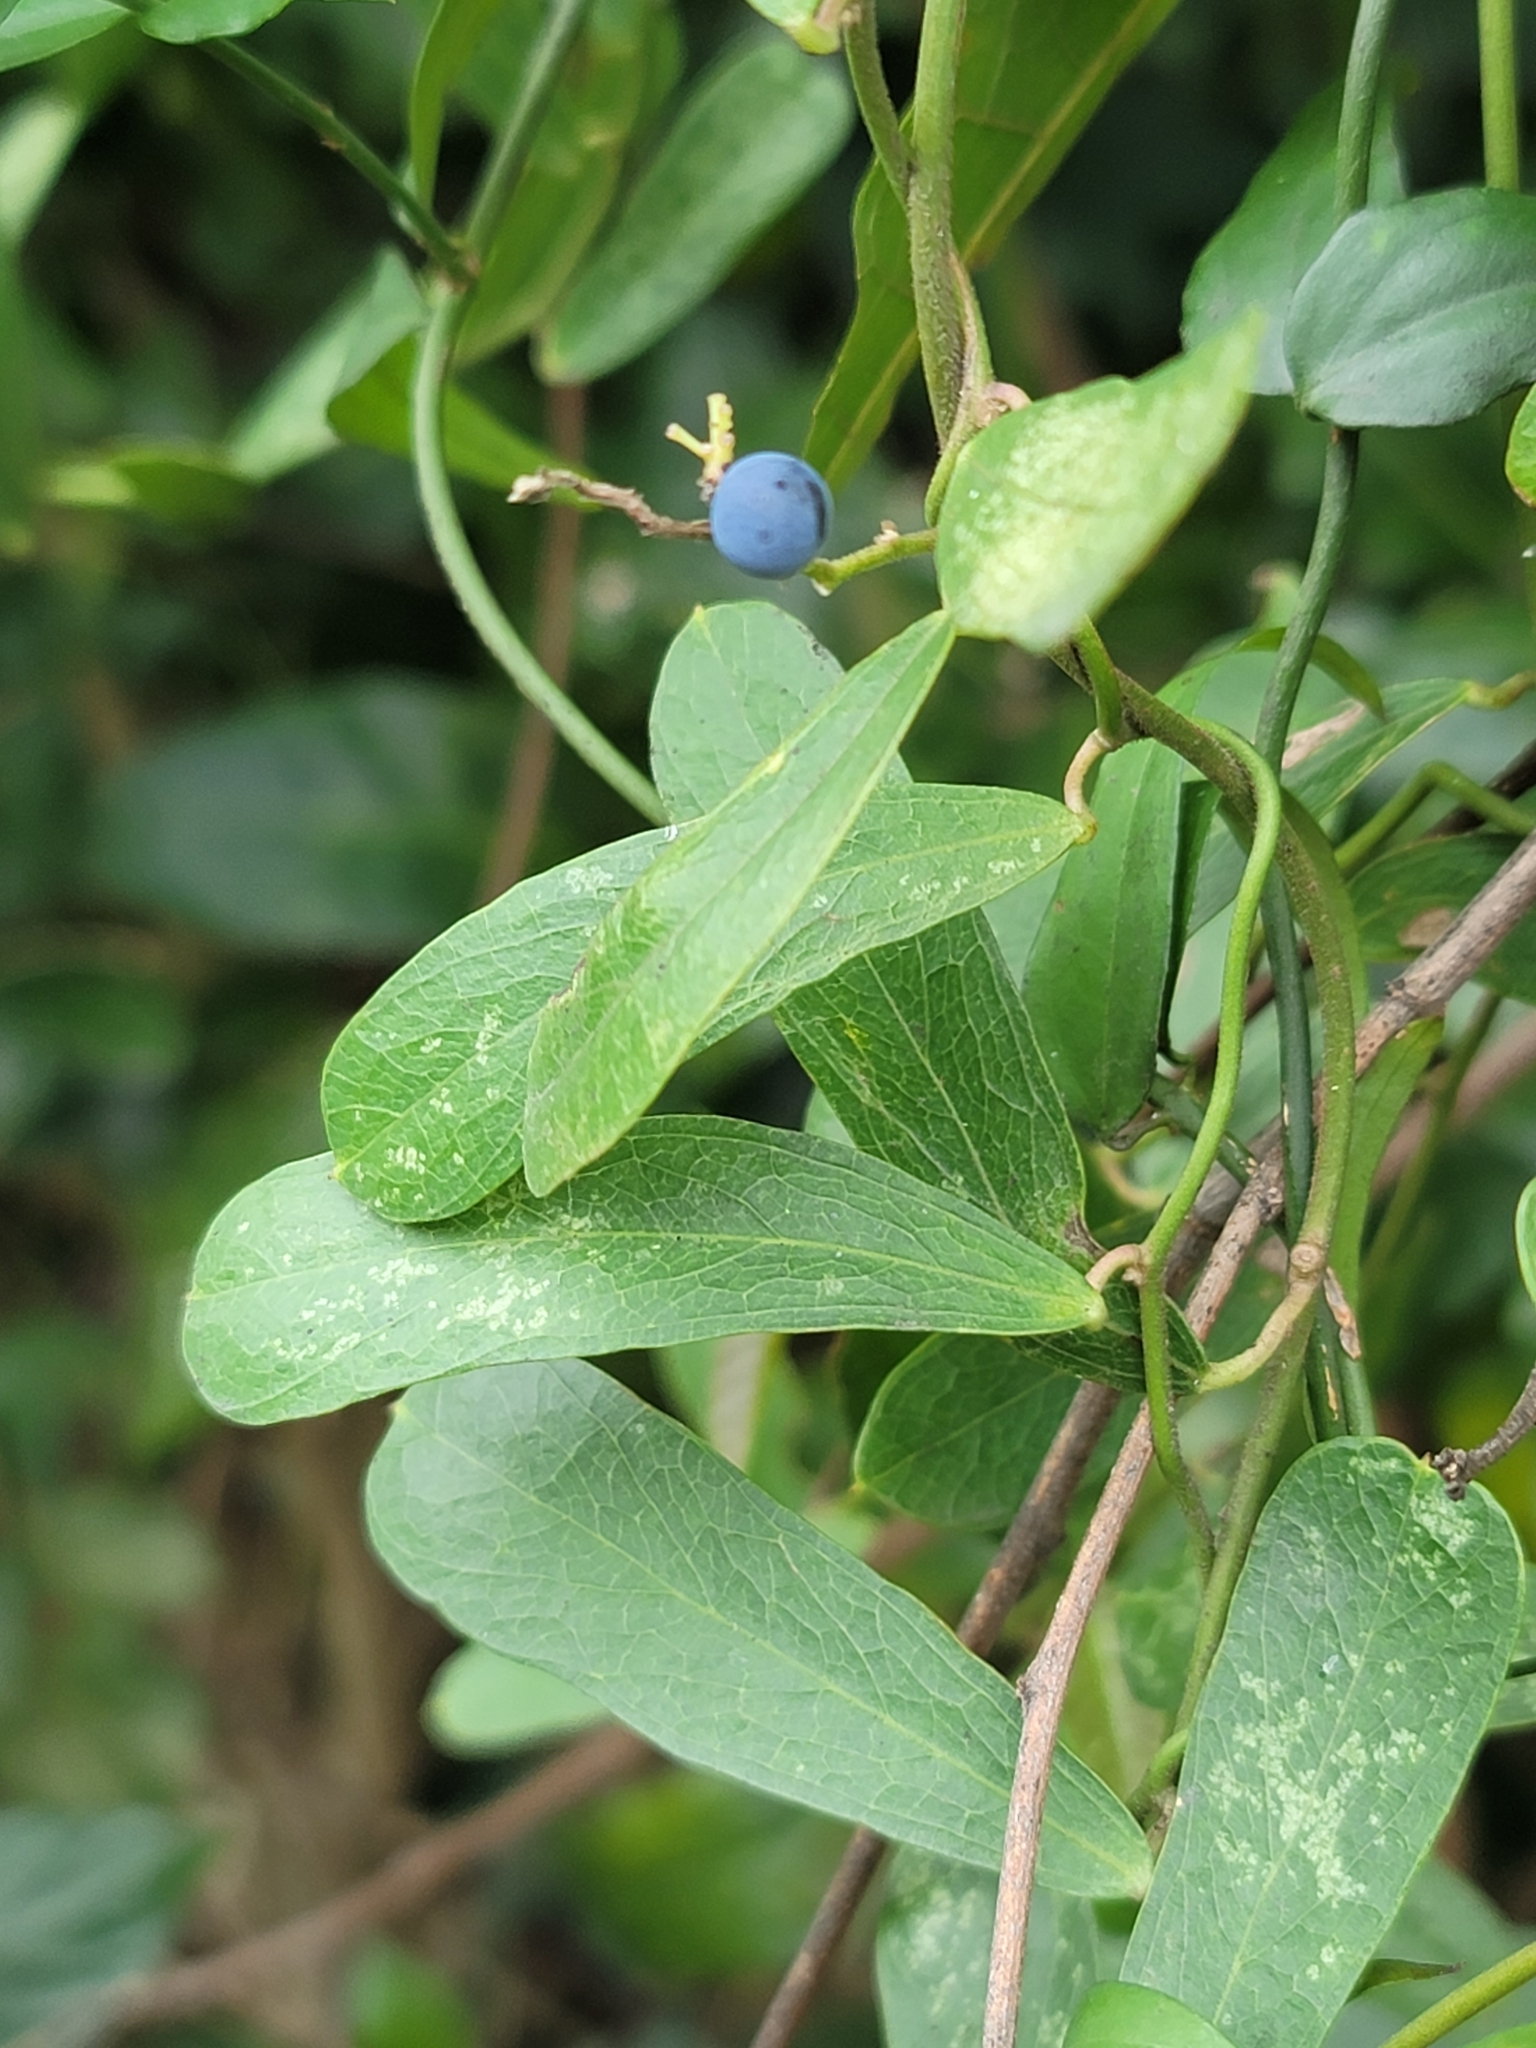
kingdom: Plantae
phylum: Tracheophyta
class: Magnoliopsida
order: Ranunculales
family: Menispermaceae
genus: Cocculus
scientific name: Cocculus orbiculatus
